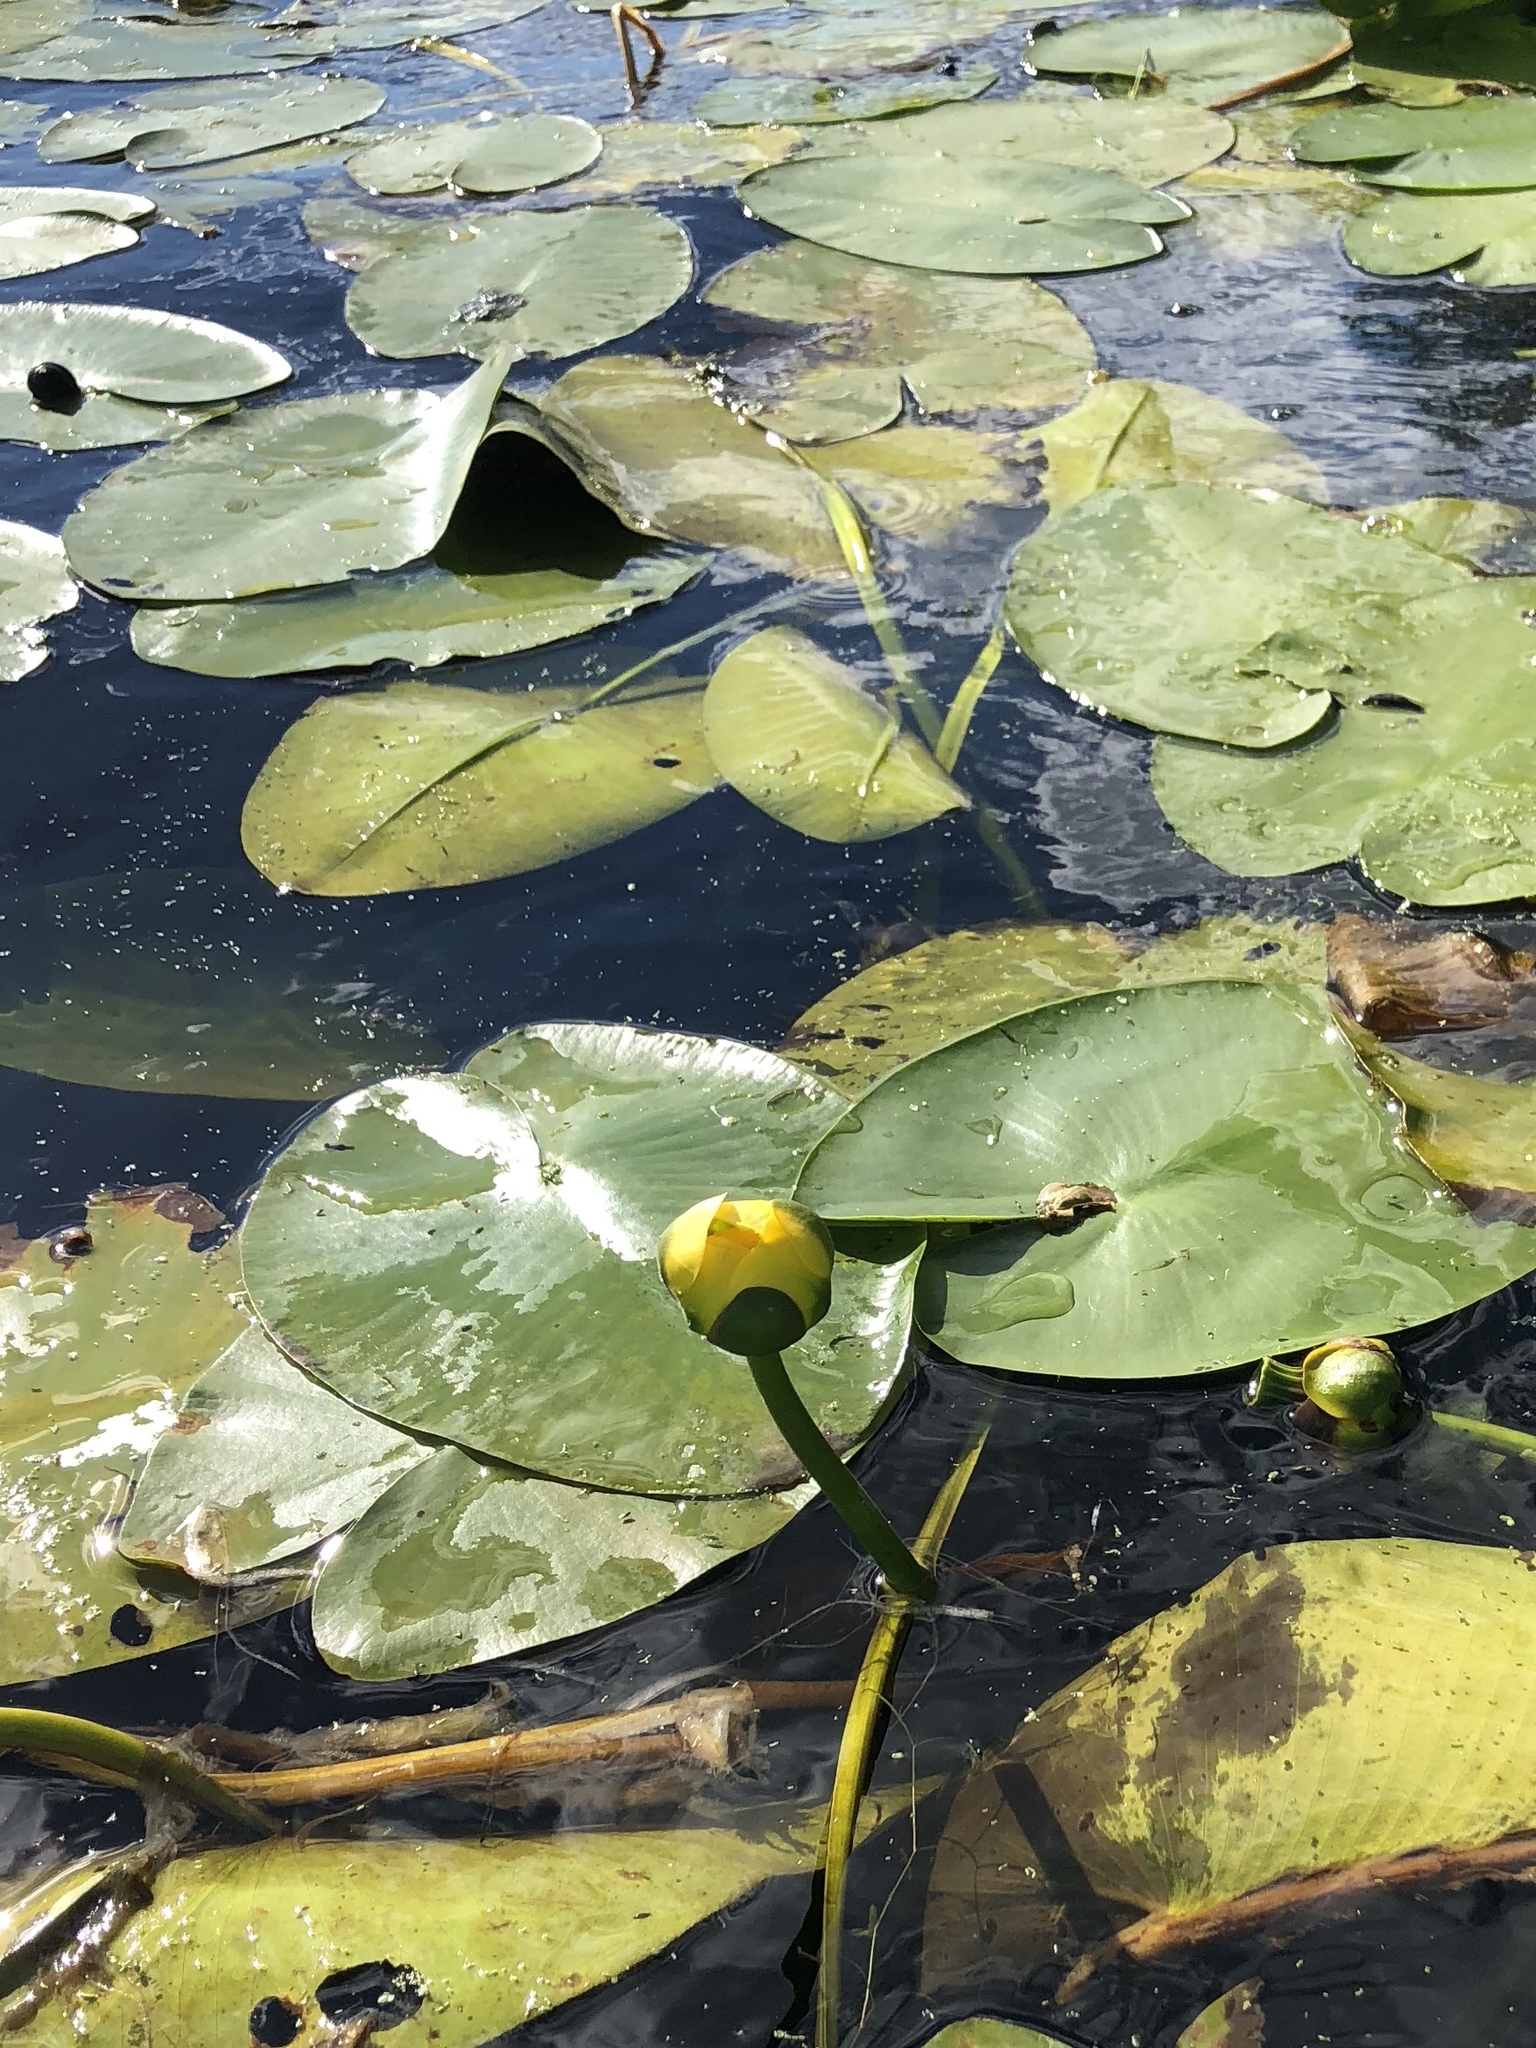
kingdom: Plantae
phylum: Tracheophyta
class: Magnoliopsida
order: Nymphaeales
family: Nymphaeaceae
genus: Nuphar
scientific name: Nuphar variegata
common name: Beaver-root
